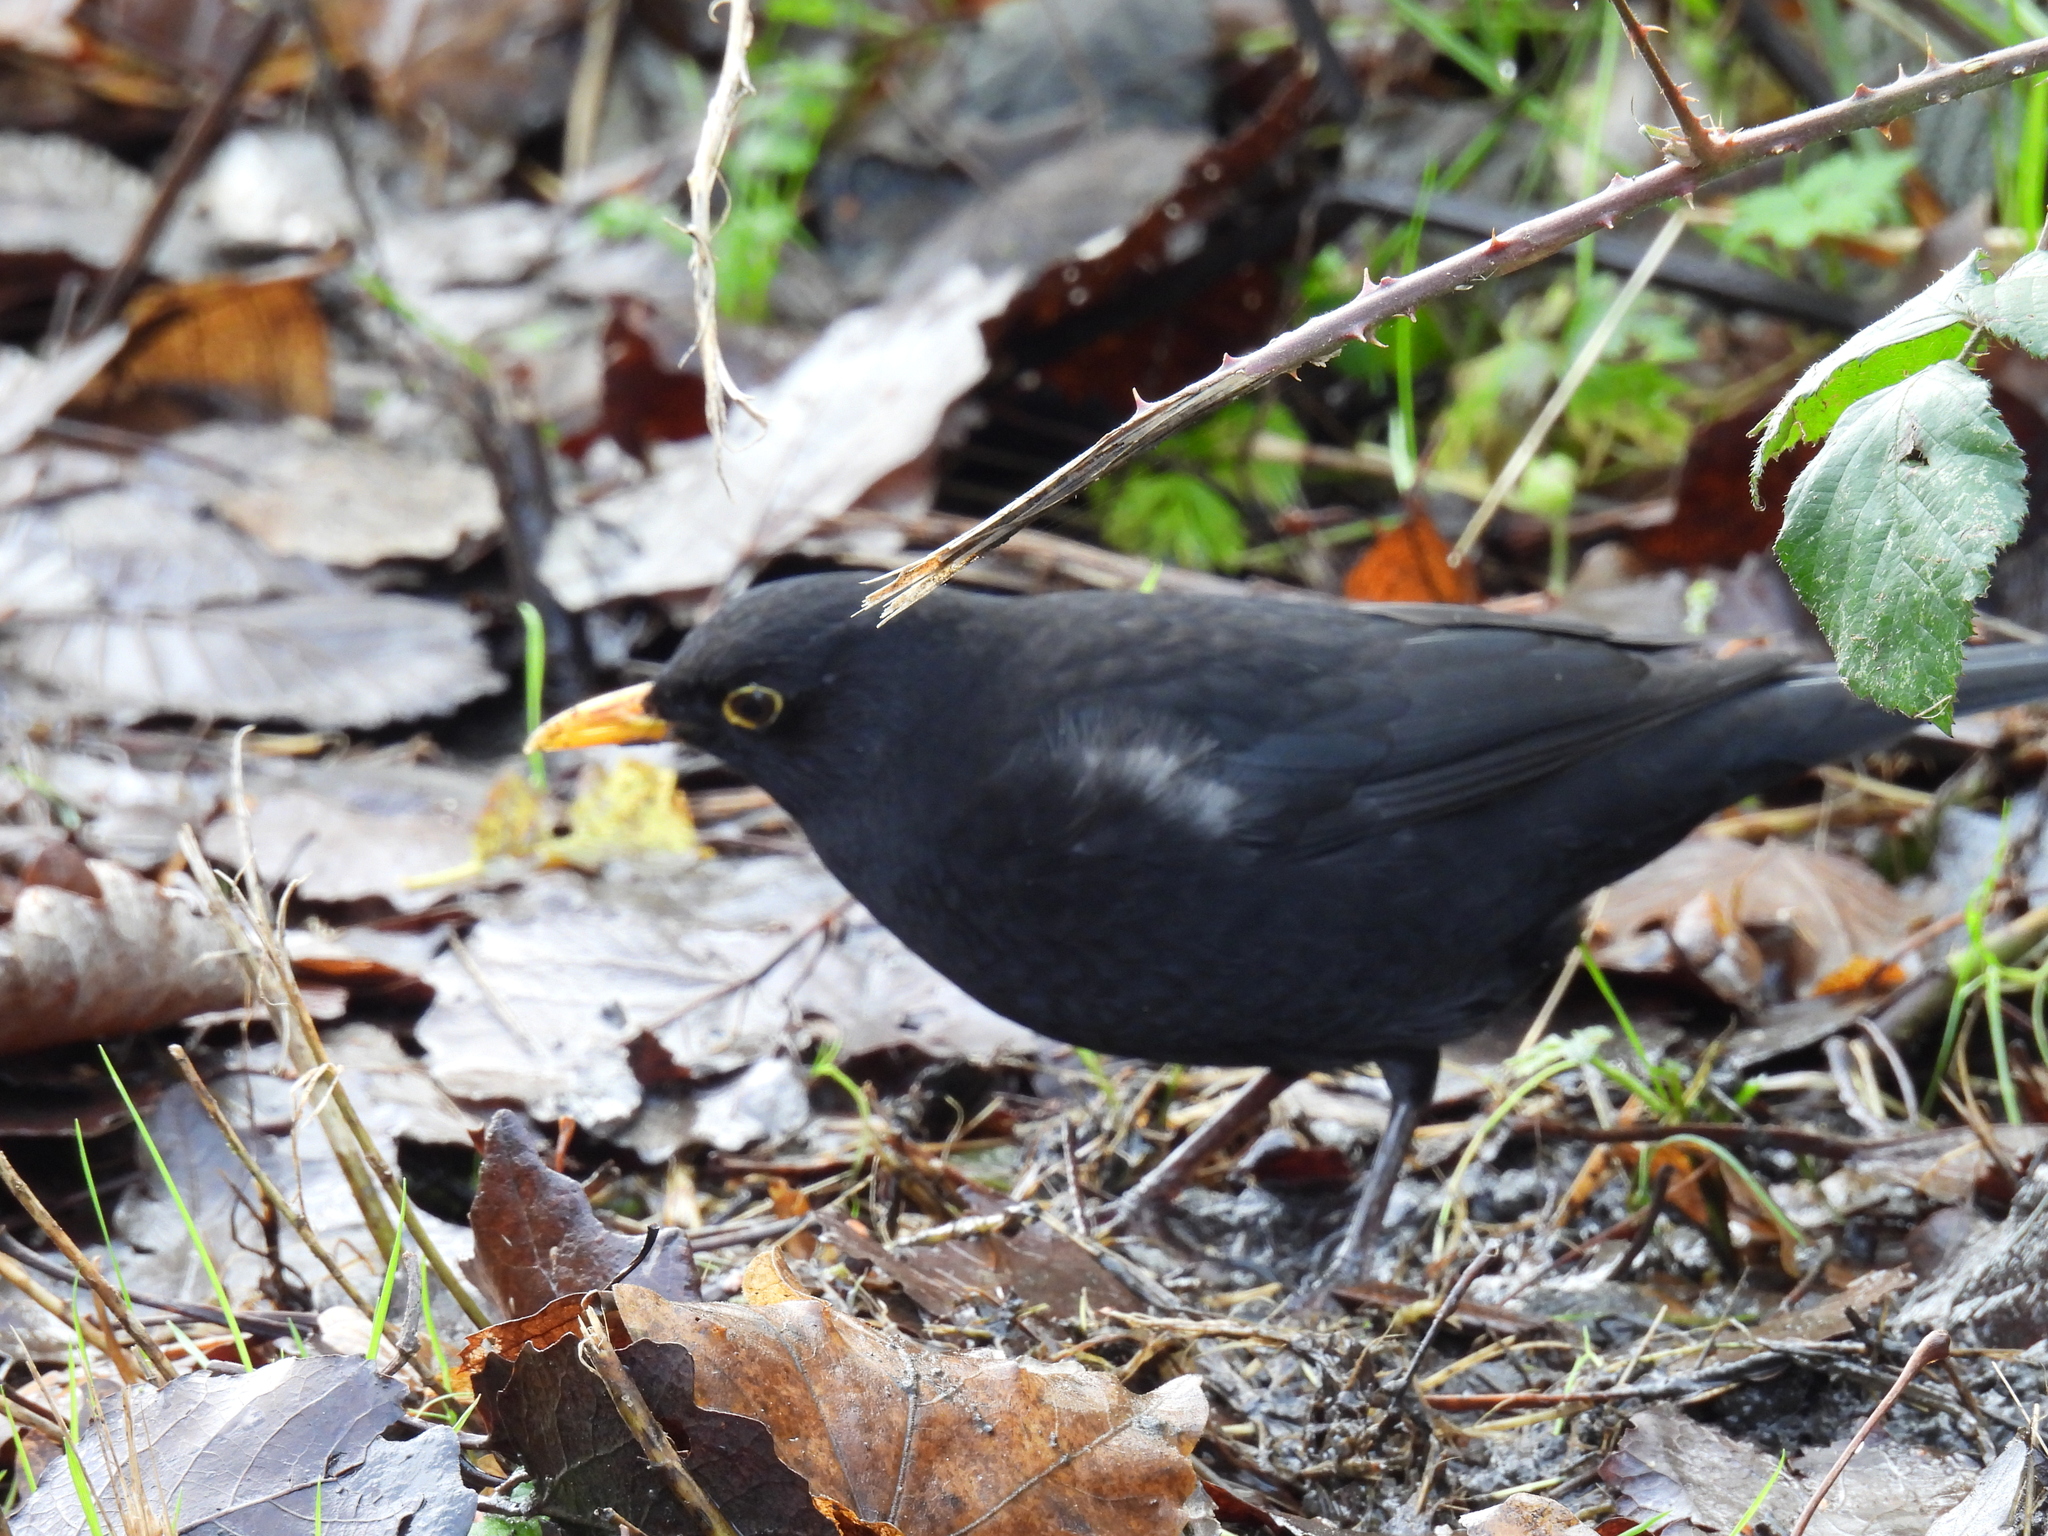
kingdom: Animalia
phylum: Chordata
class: Aves
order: Passeriformes
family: Turdidae
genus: Turdus
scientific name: Turdus merula
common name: Common blackbird
